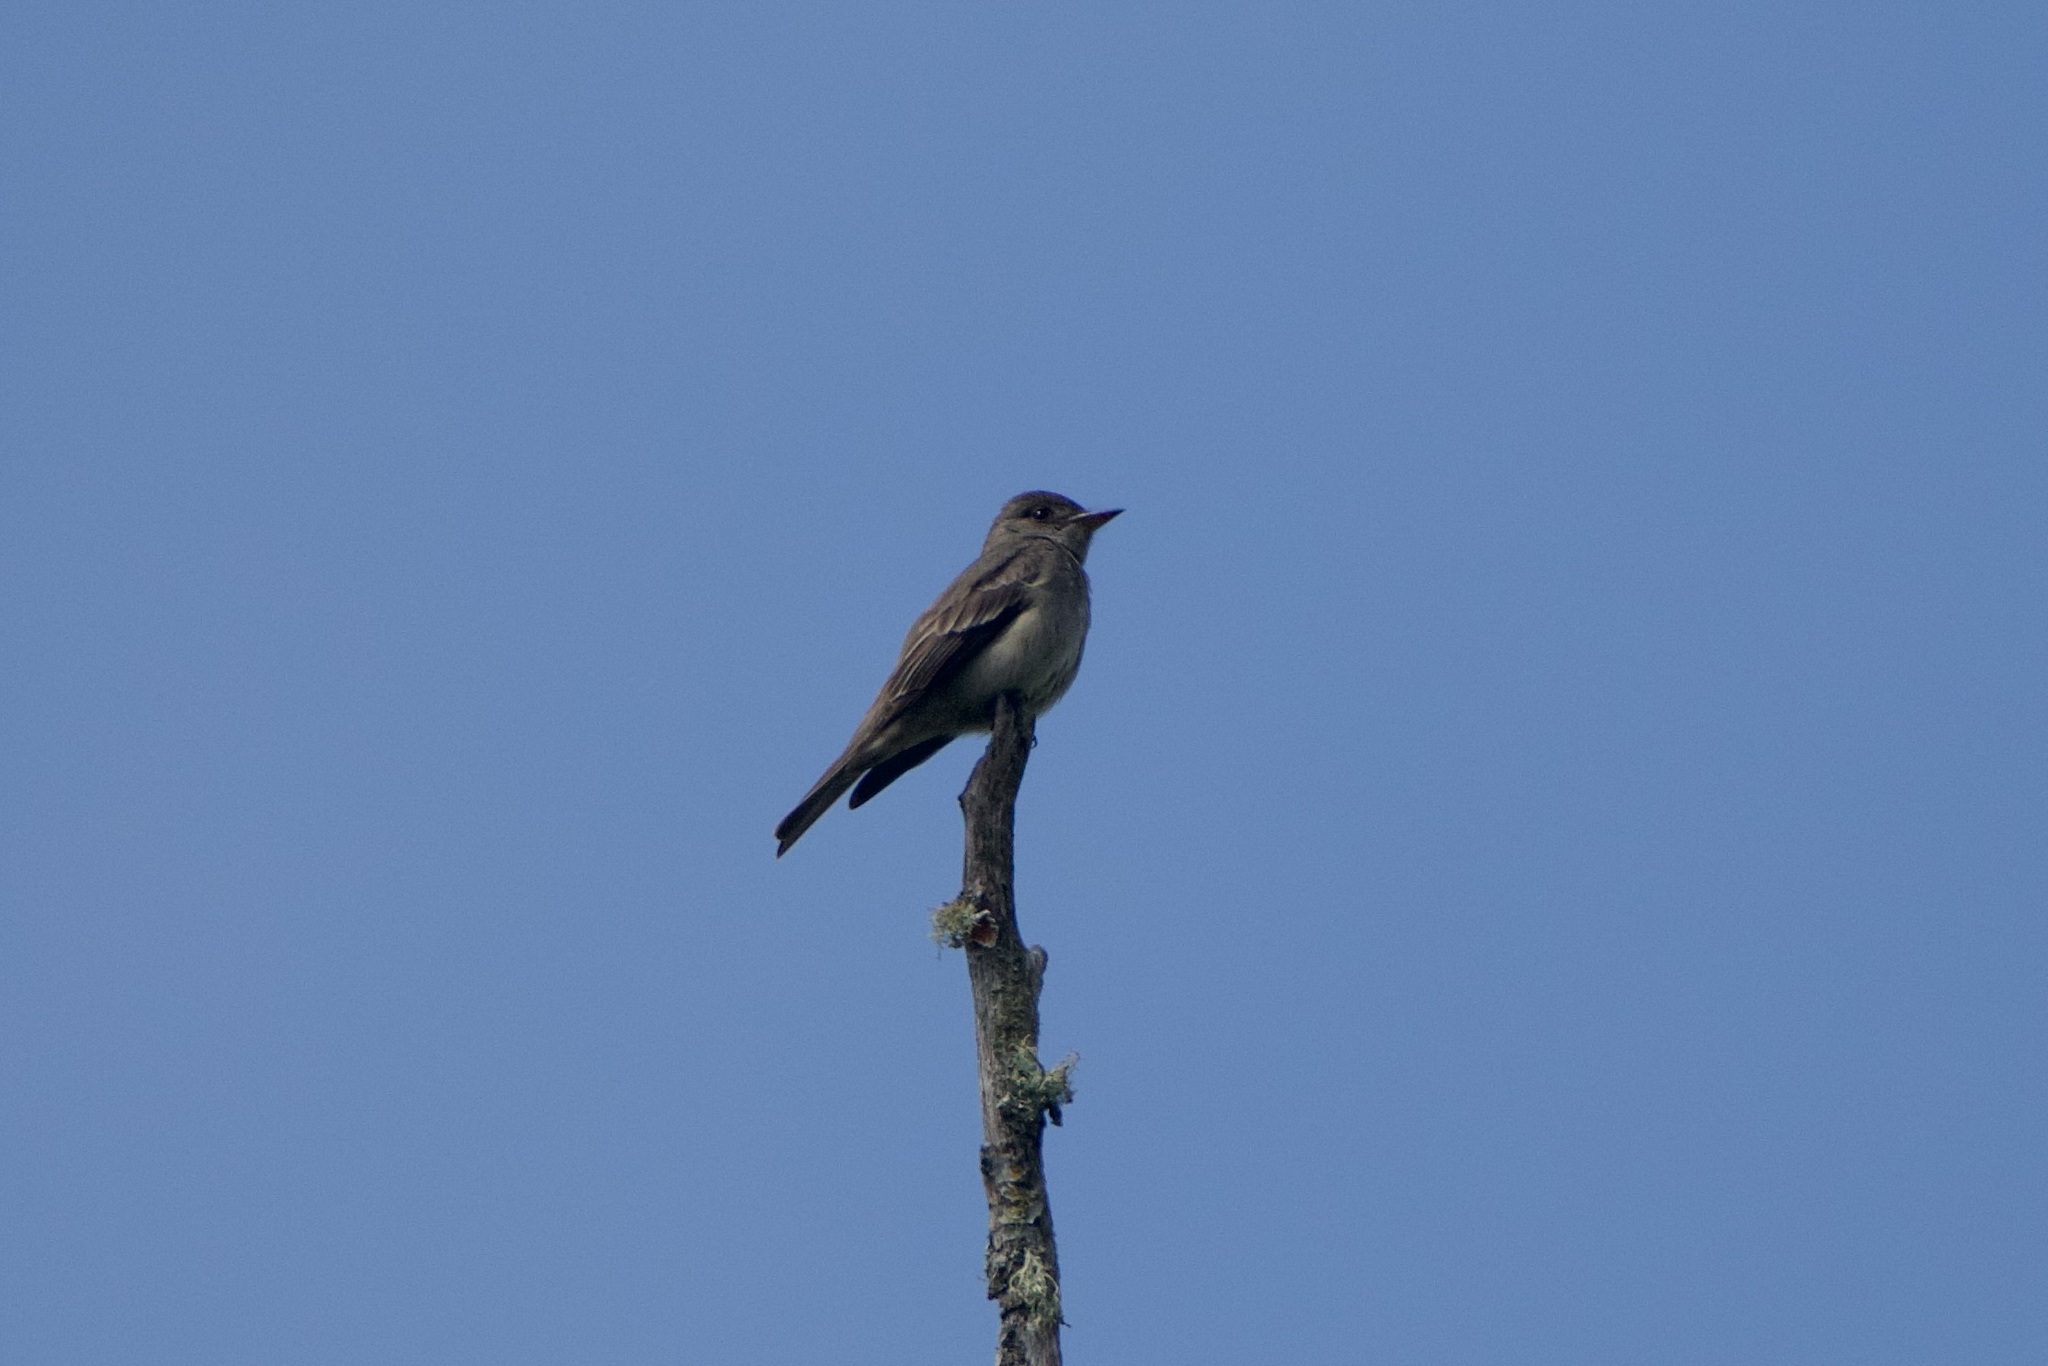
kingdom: Animalia
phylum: Chordata
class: Aves
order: Passeriformes
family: Tyrannidae
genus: Contopus
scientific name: Contopus sordidulus
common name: Western wood-pewee
